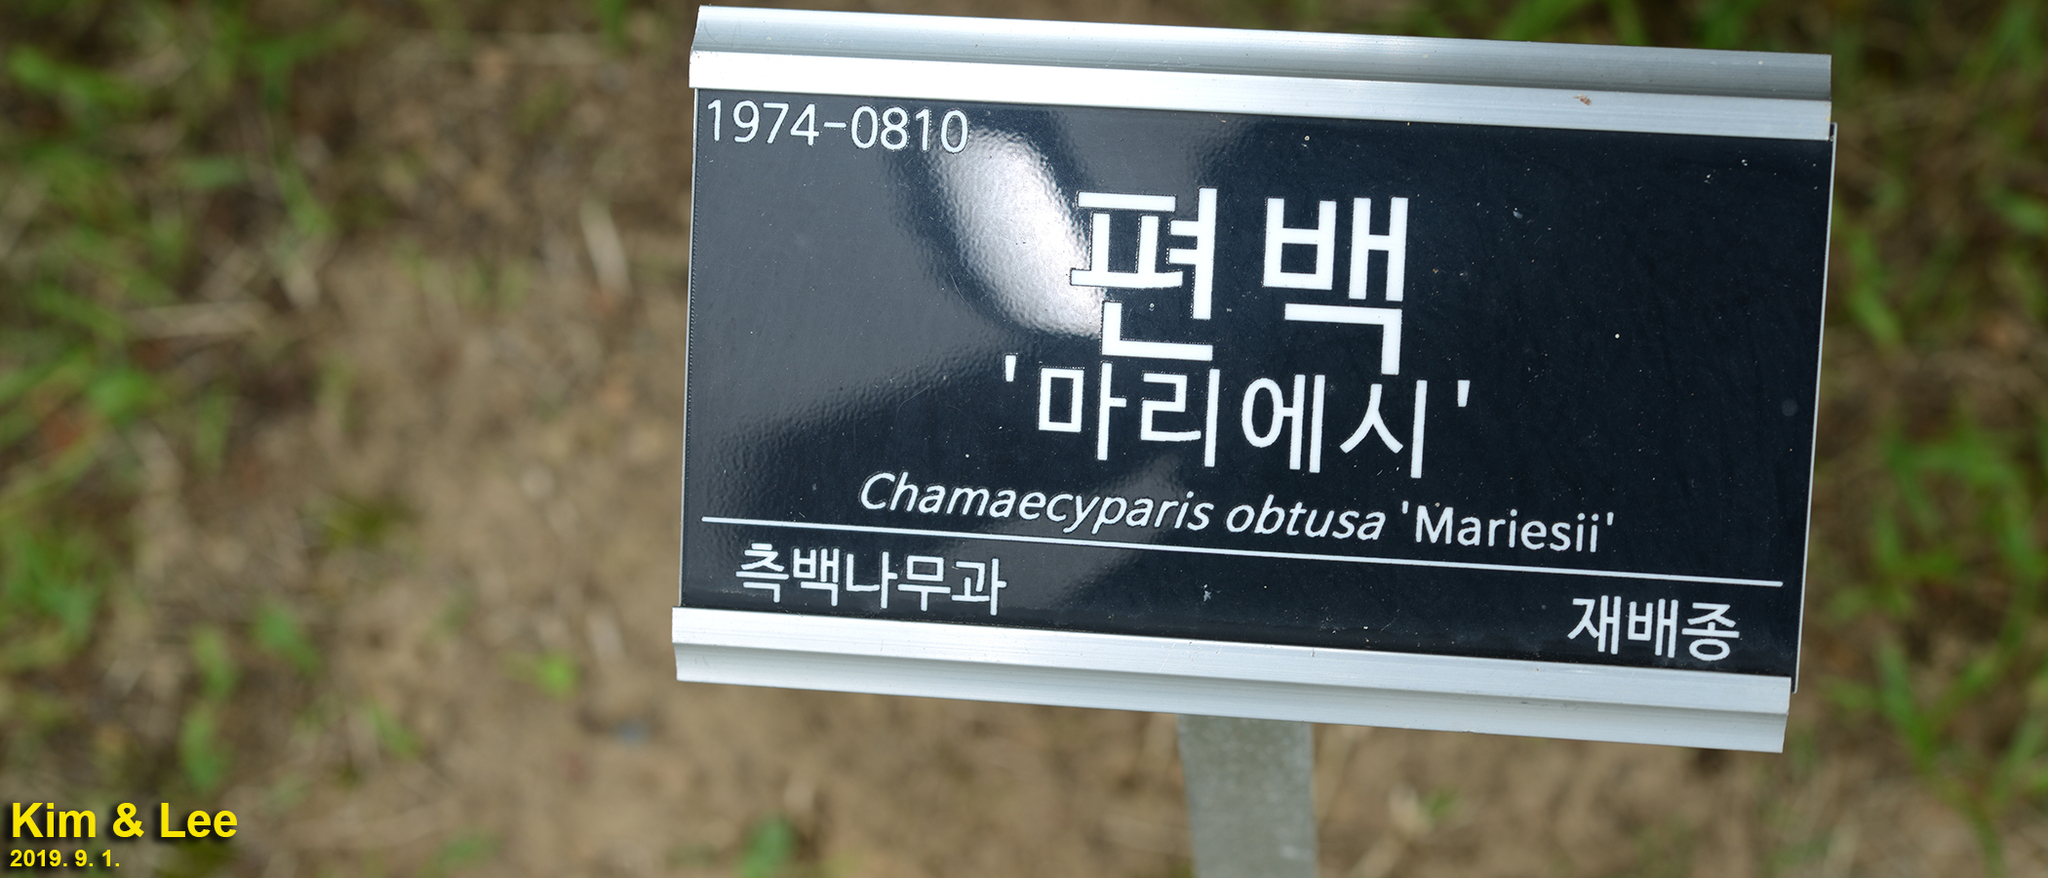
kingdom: Plantae
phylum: Tracheophyta
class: Pinopsida
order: Pinales
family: Cupressaceae
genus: Chamaecyparis
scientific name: Chamaecyparis obtusa
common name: Hinoki false cypress
